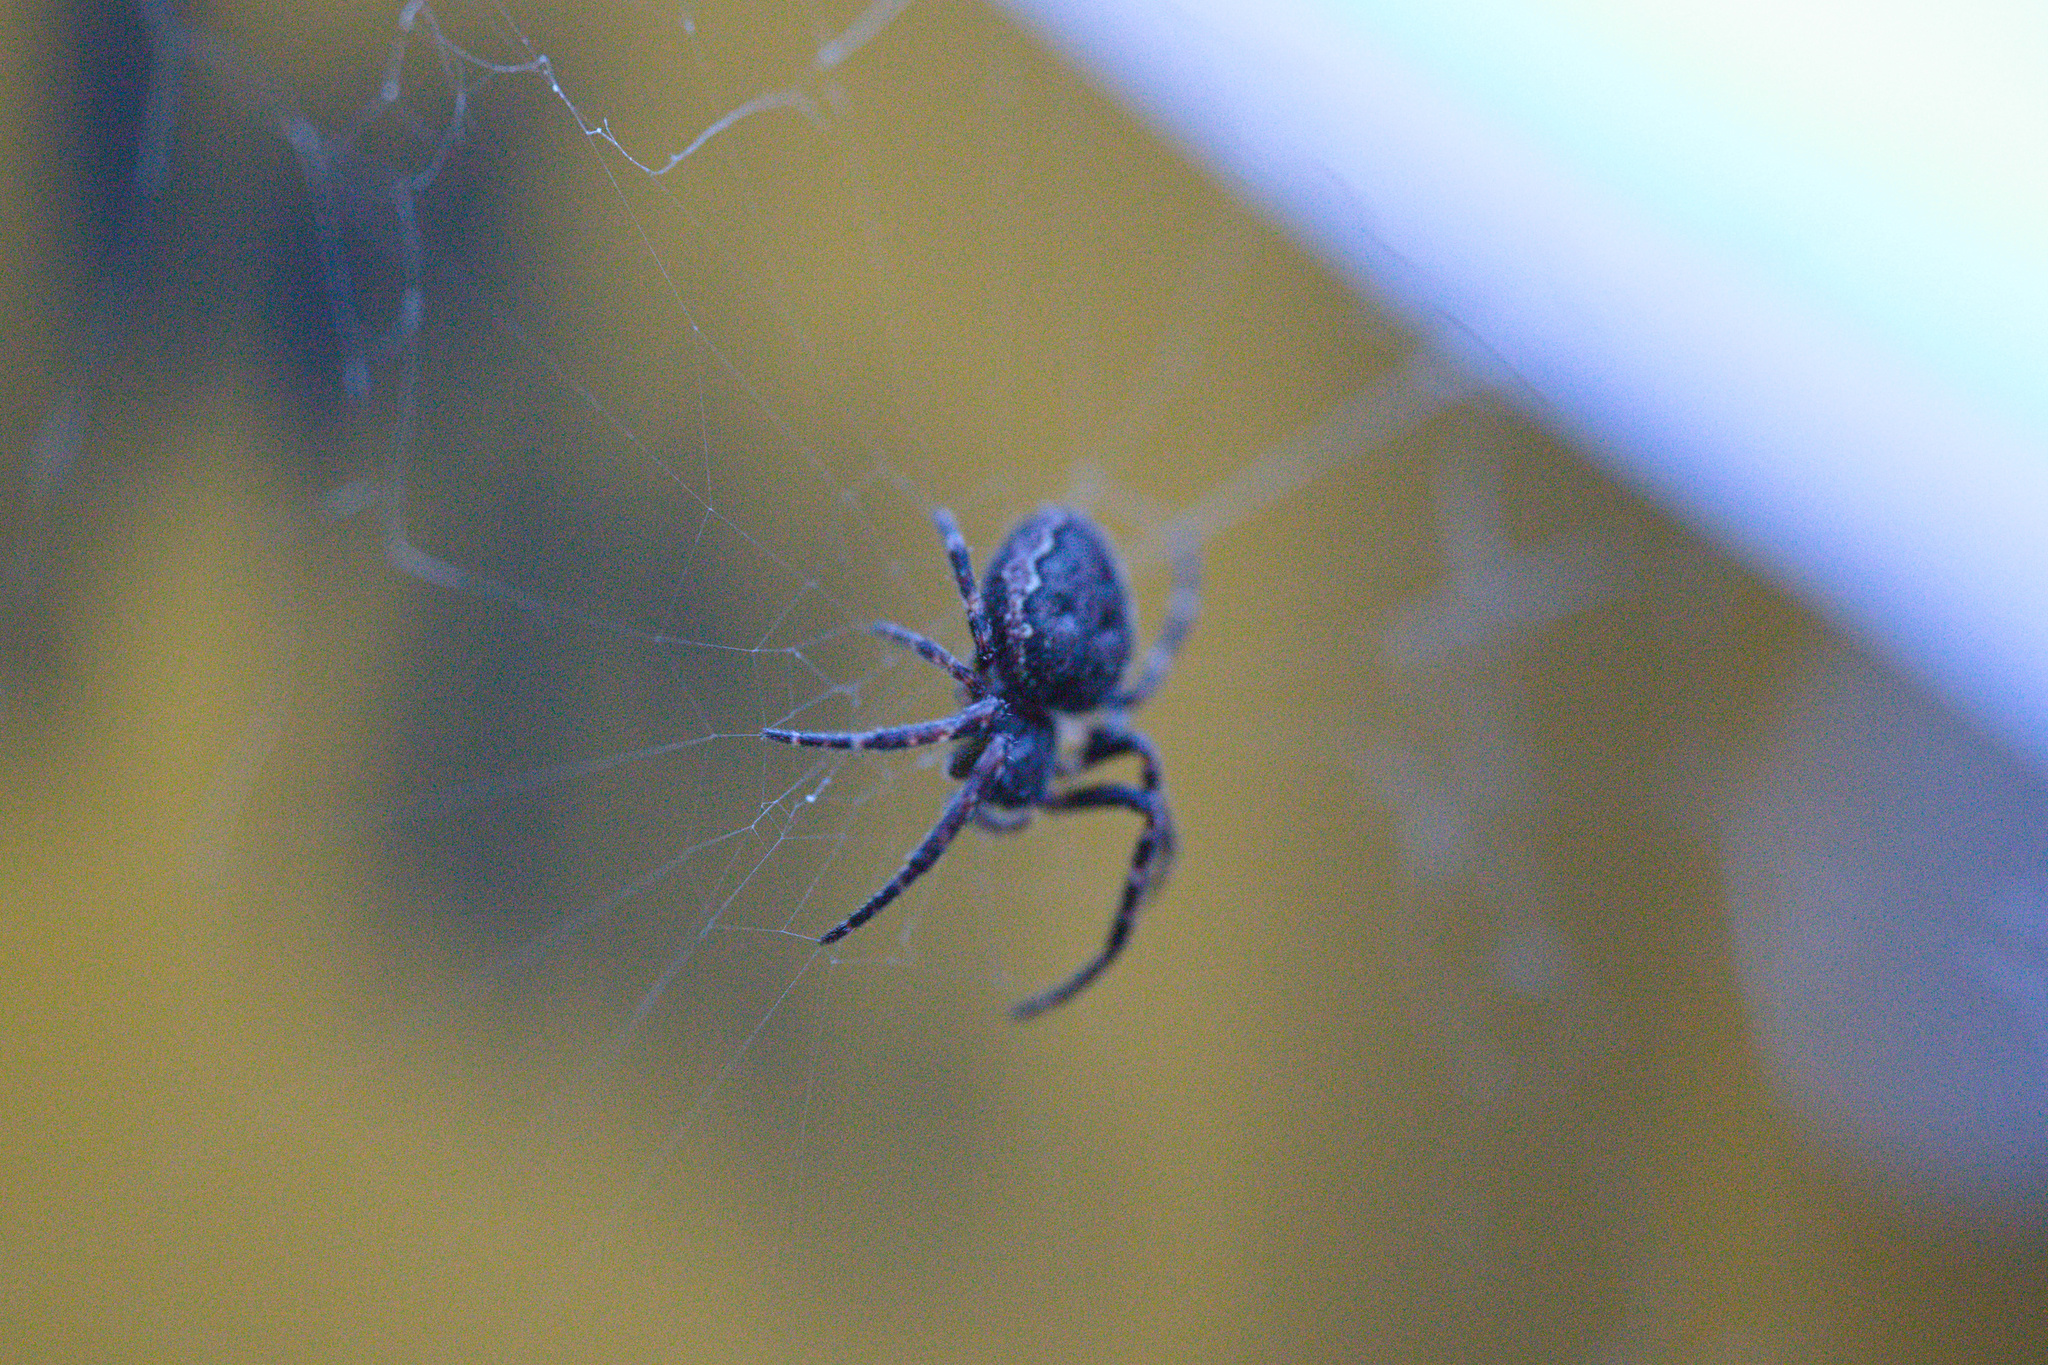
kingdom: Animalia
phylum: Arthropoda
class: Arachnida
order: Araneae
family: Araneidae
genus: Nuctenea
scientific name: Nuctenea umbratica
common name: Toad spider
